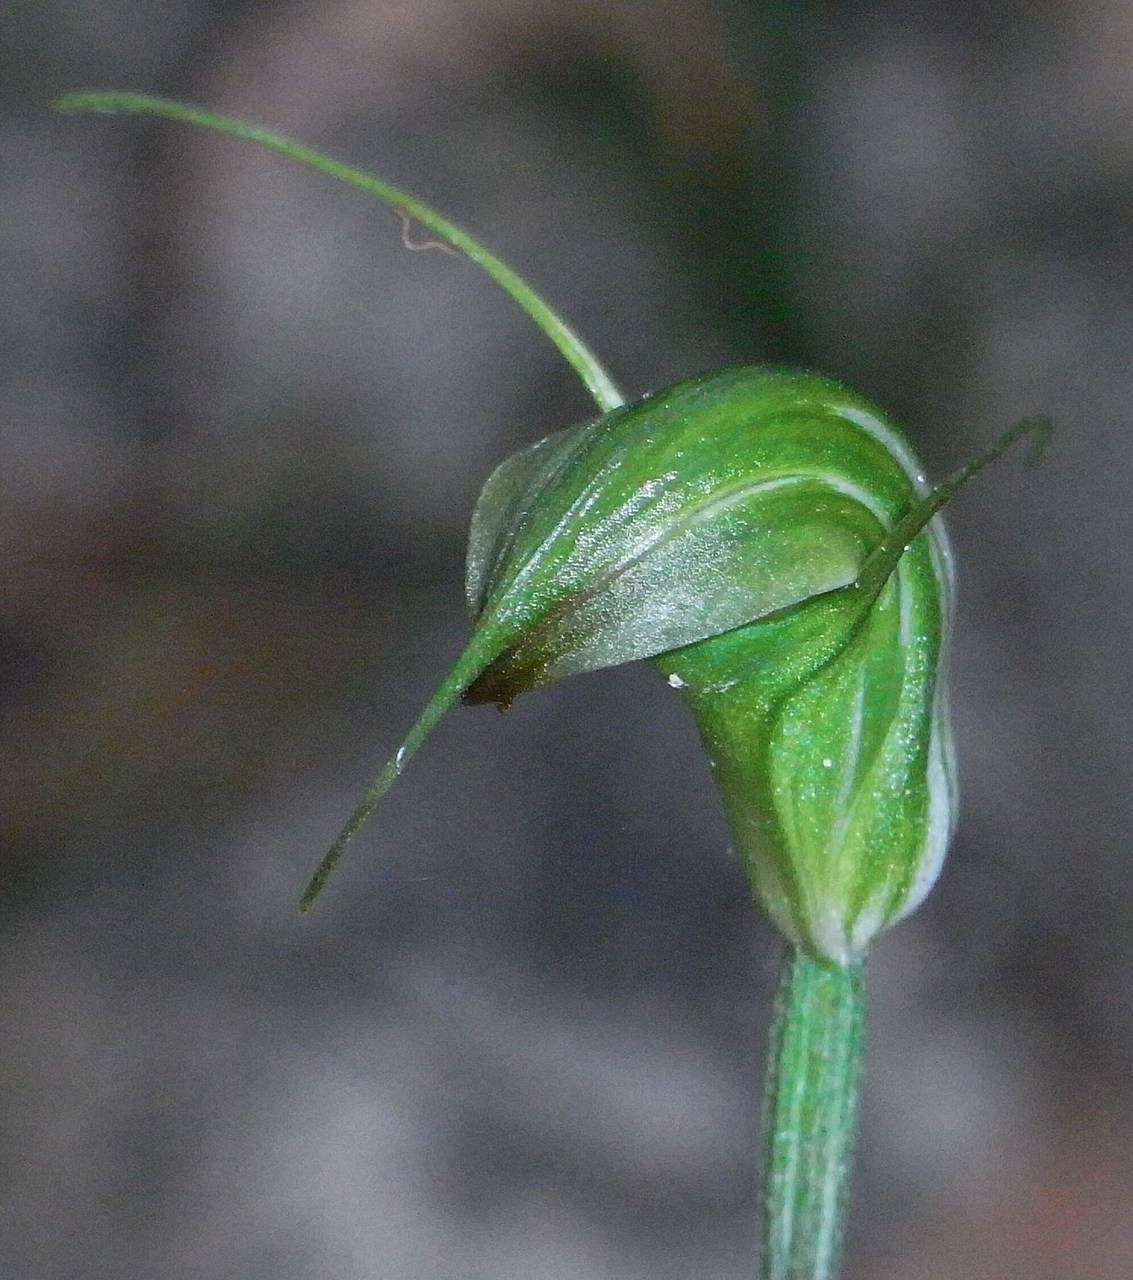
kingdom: Plantae
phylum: Tracheophyta
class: Liliopsida
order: Asparagales
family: Orchidaceae
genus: Pterostylis
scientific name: Pterostylis atrans
